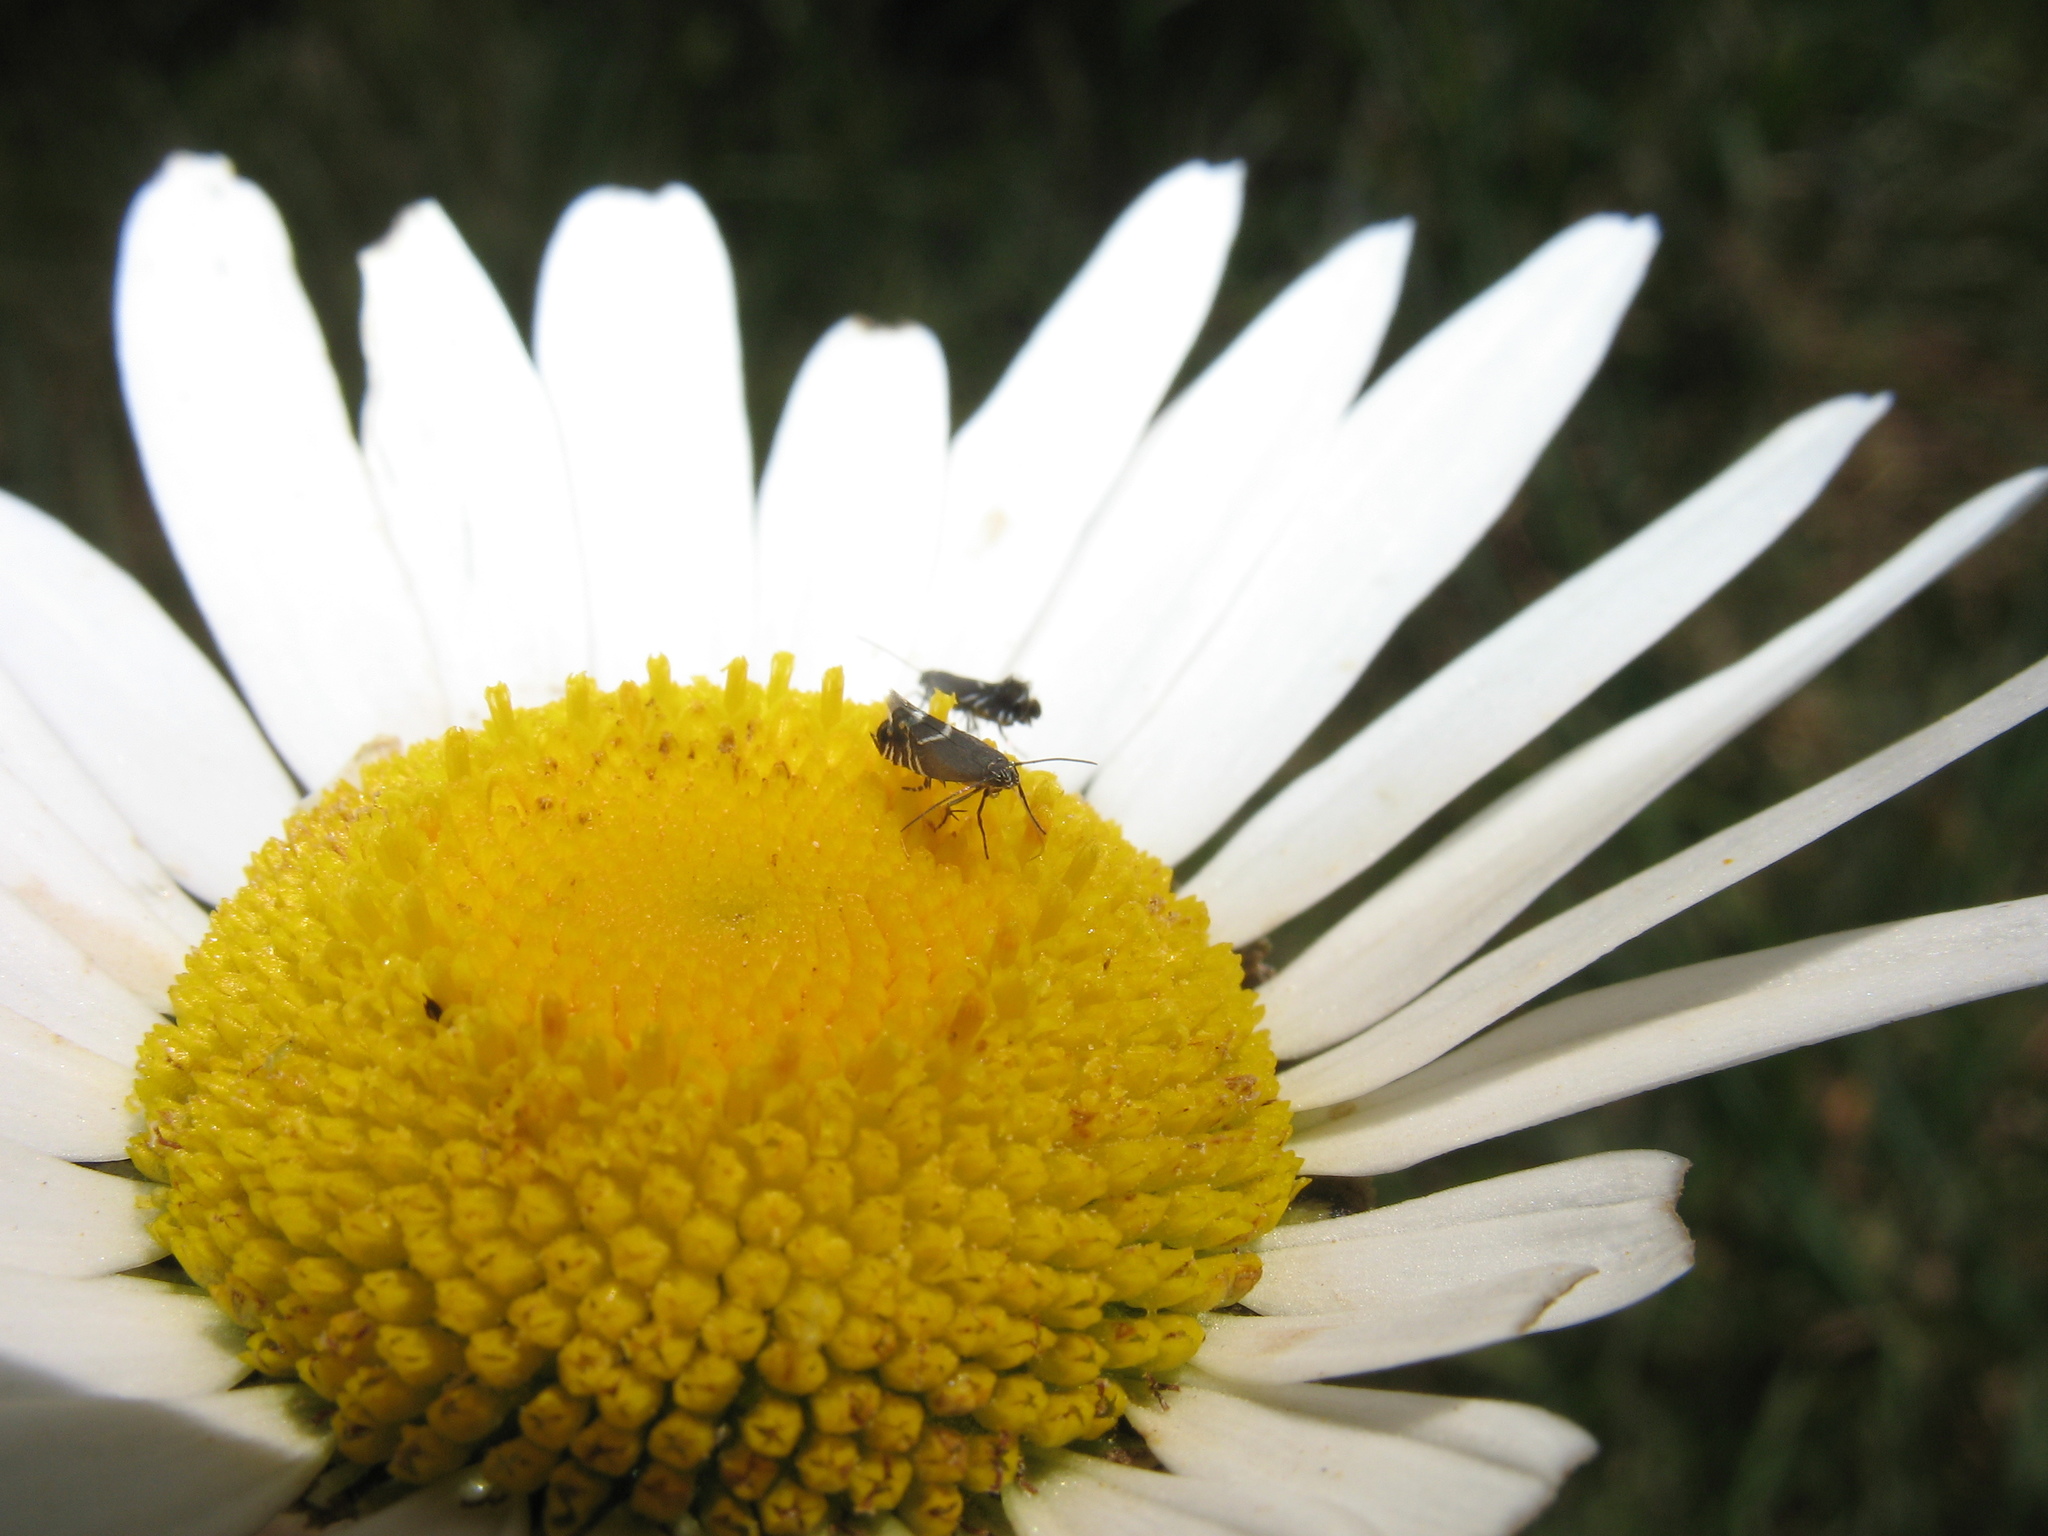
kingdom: Animalia
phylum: Arthropoda
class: Insecta
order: Lepidoptera
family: Glyphipterigidae
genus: Glyphipterix
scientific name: Glyphipterix simpliciella
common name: Cocksfoot moth
